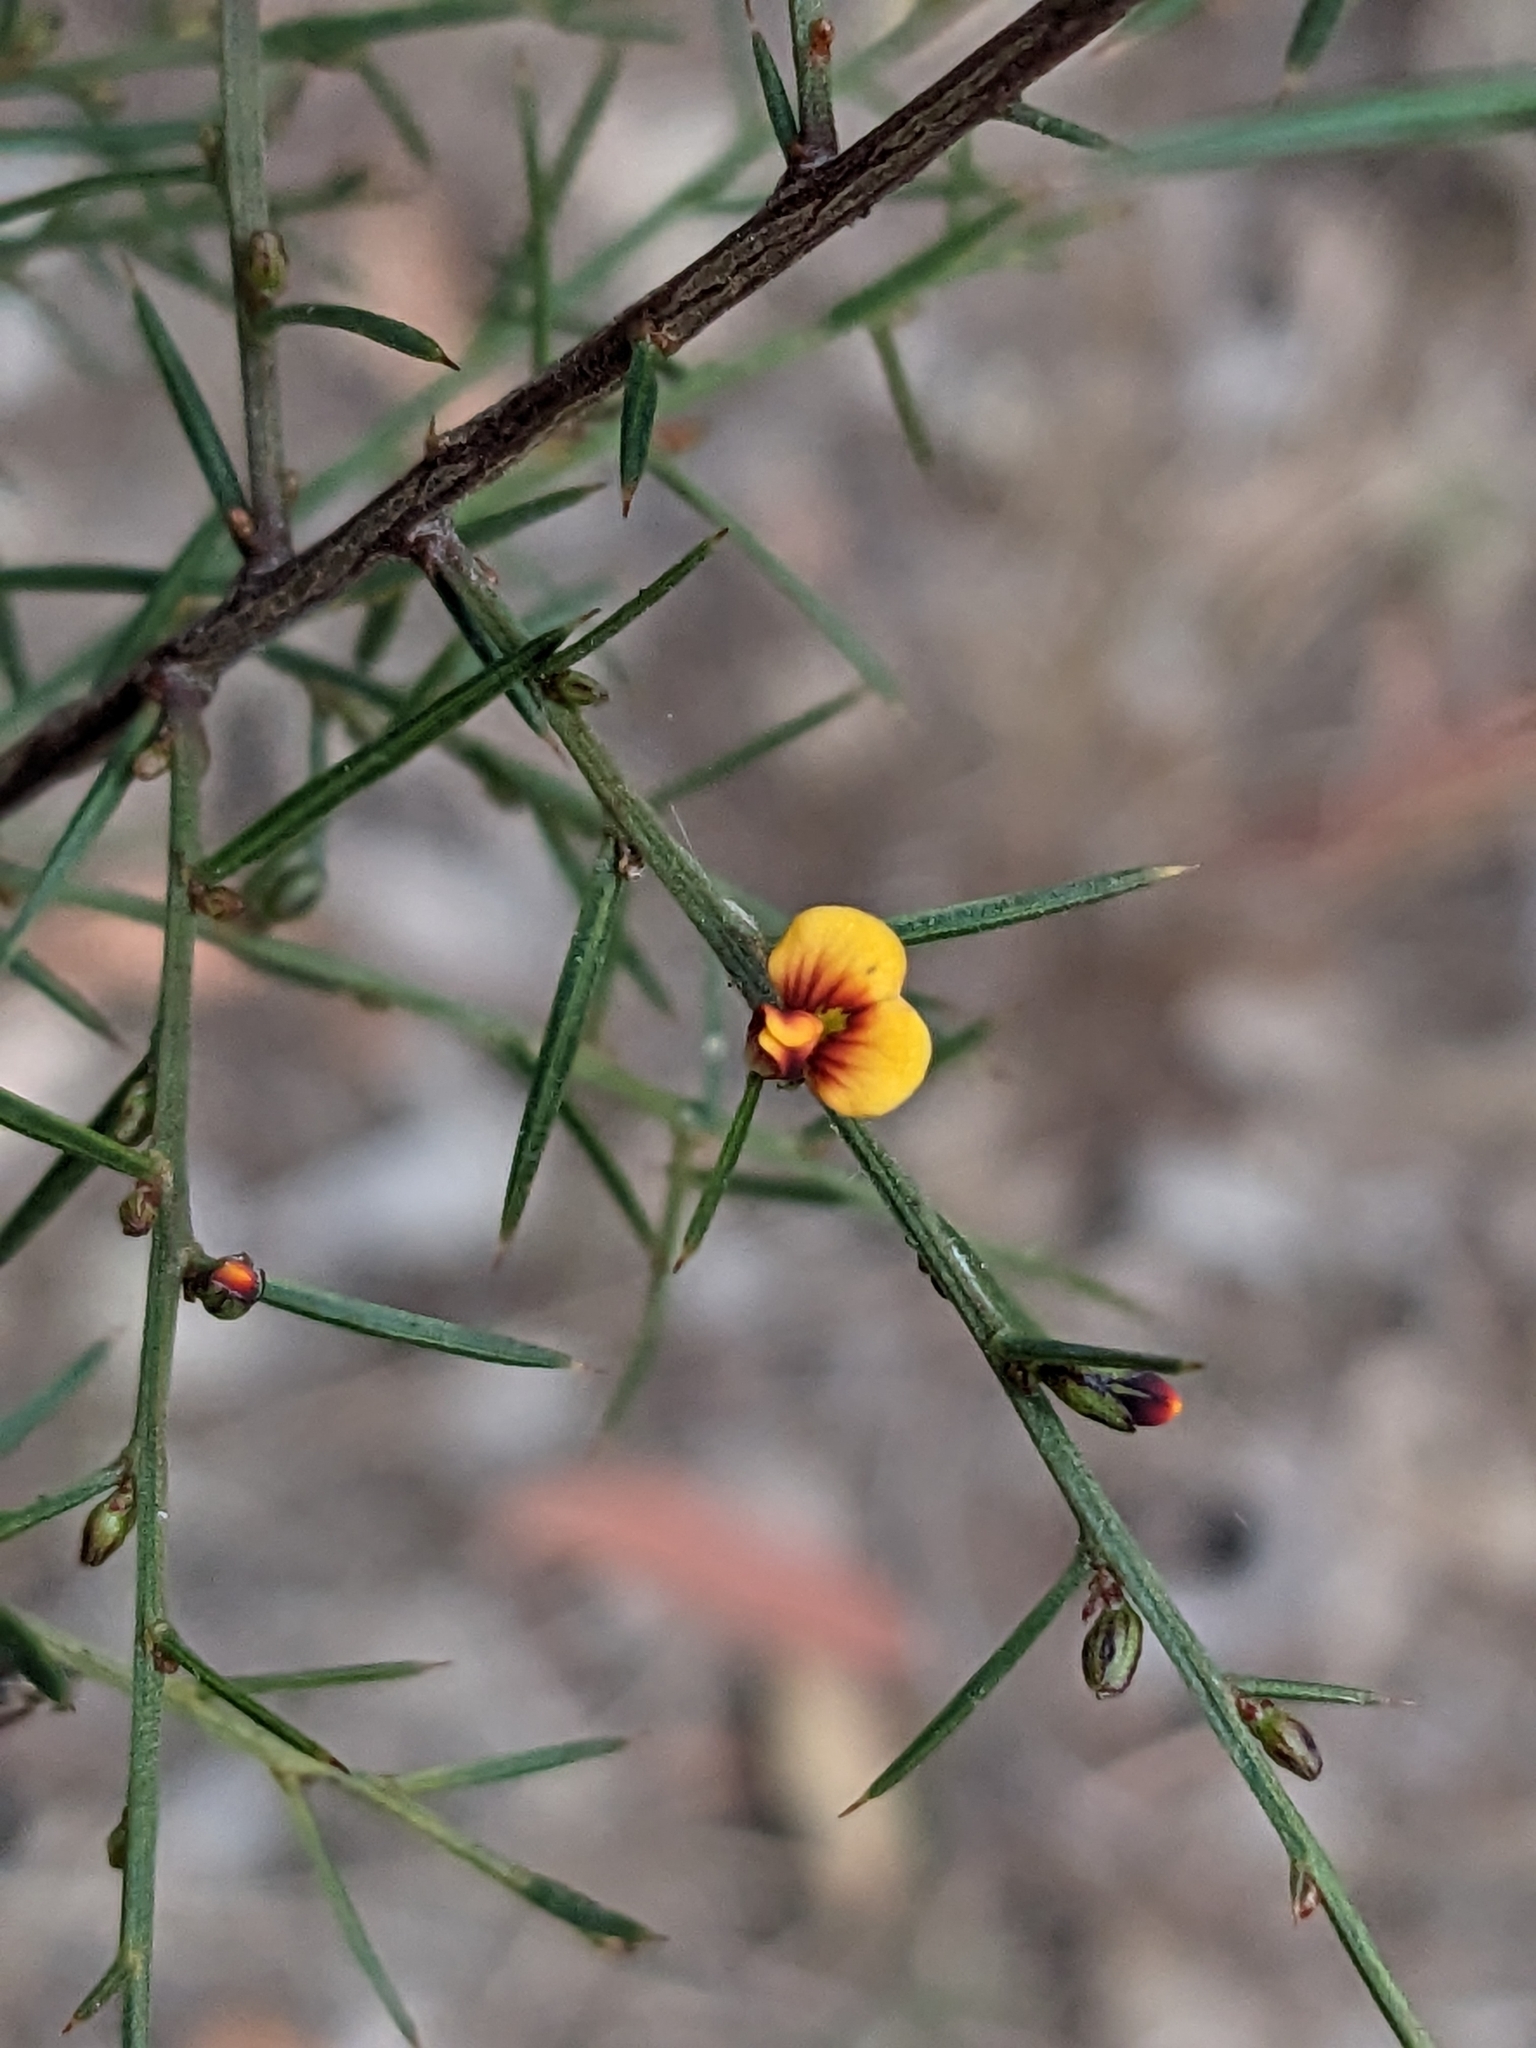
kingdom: Plantae
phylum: Tracheophyta
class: Magnoliopsida
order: Fabales
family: Fabaceae
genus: Daviesia
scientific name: Daviesia ulicifolia
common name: Gorse bitter-pea
